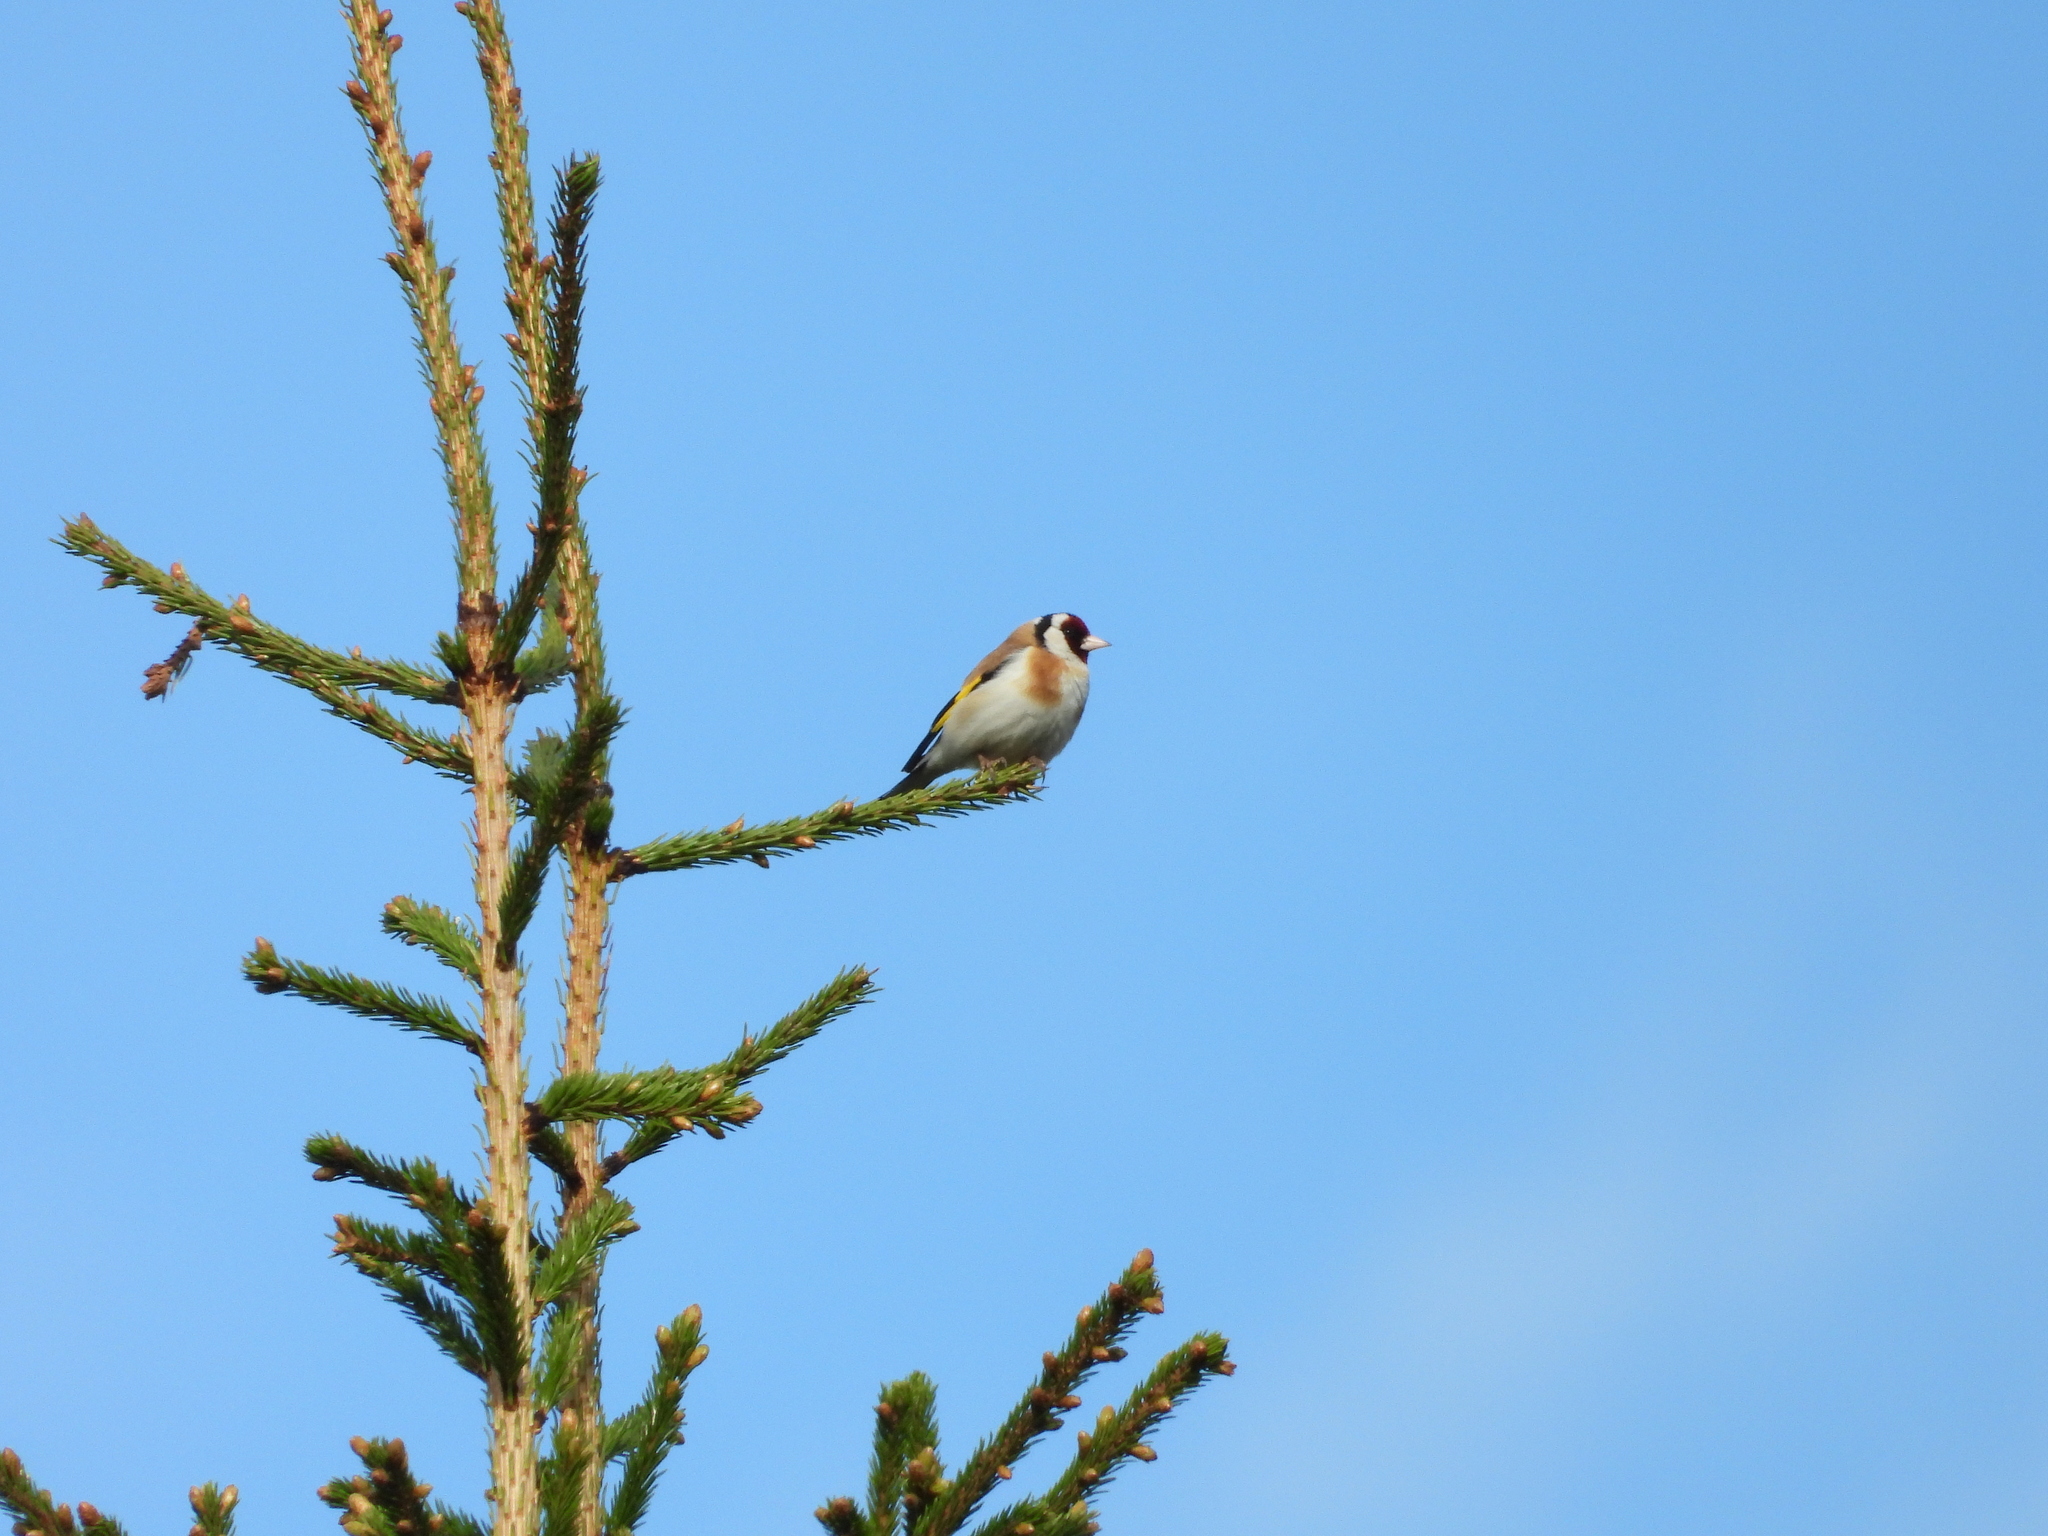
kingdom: Animalia
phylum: Chordata
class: Aves
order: Passeriformes
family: Fringillidae
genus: Carduelis
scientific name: Carduelis carduelis
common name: European goldfinch
